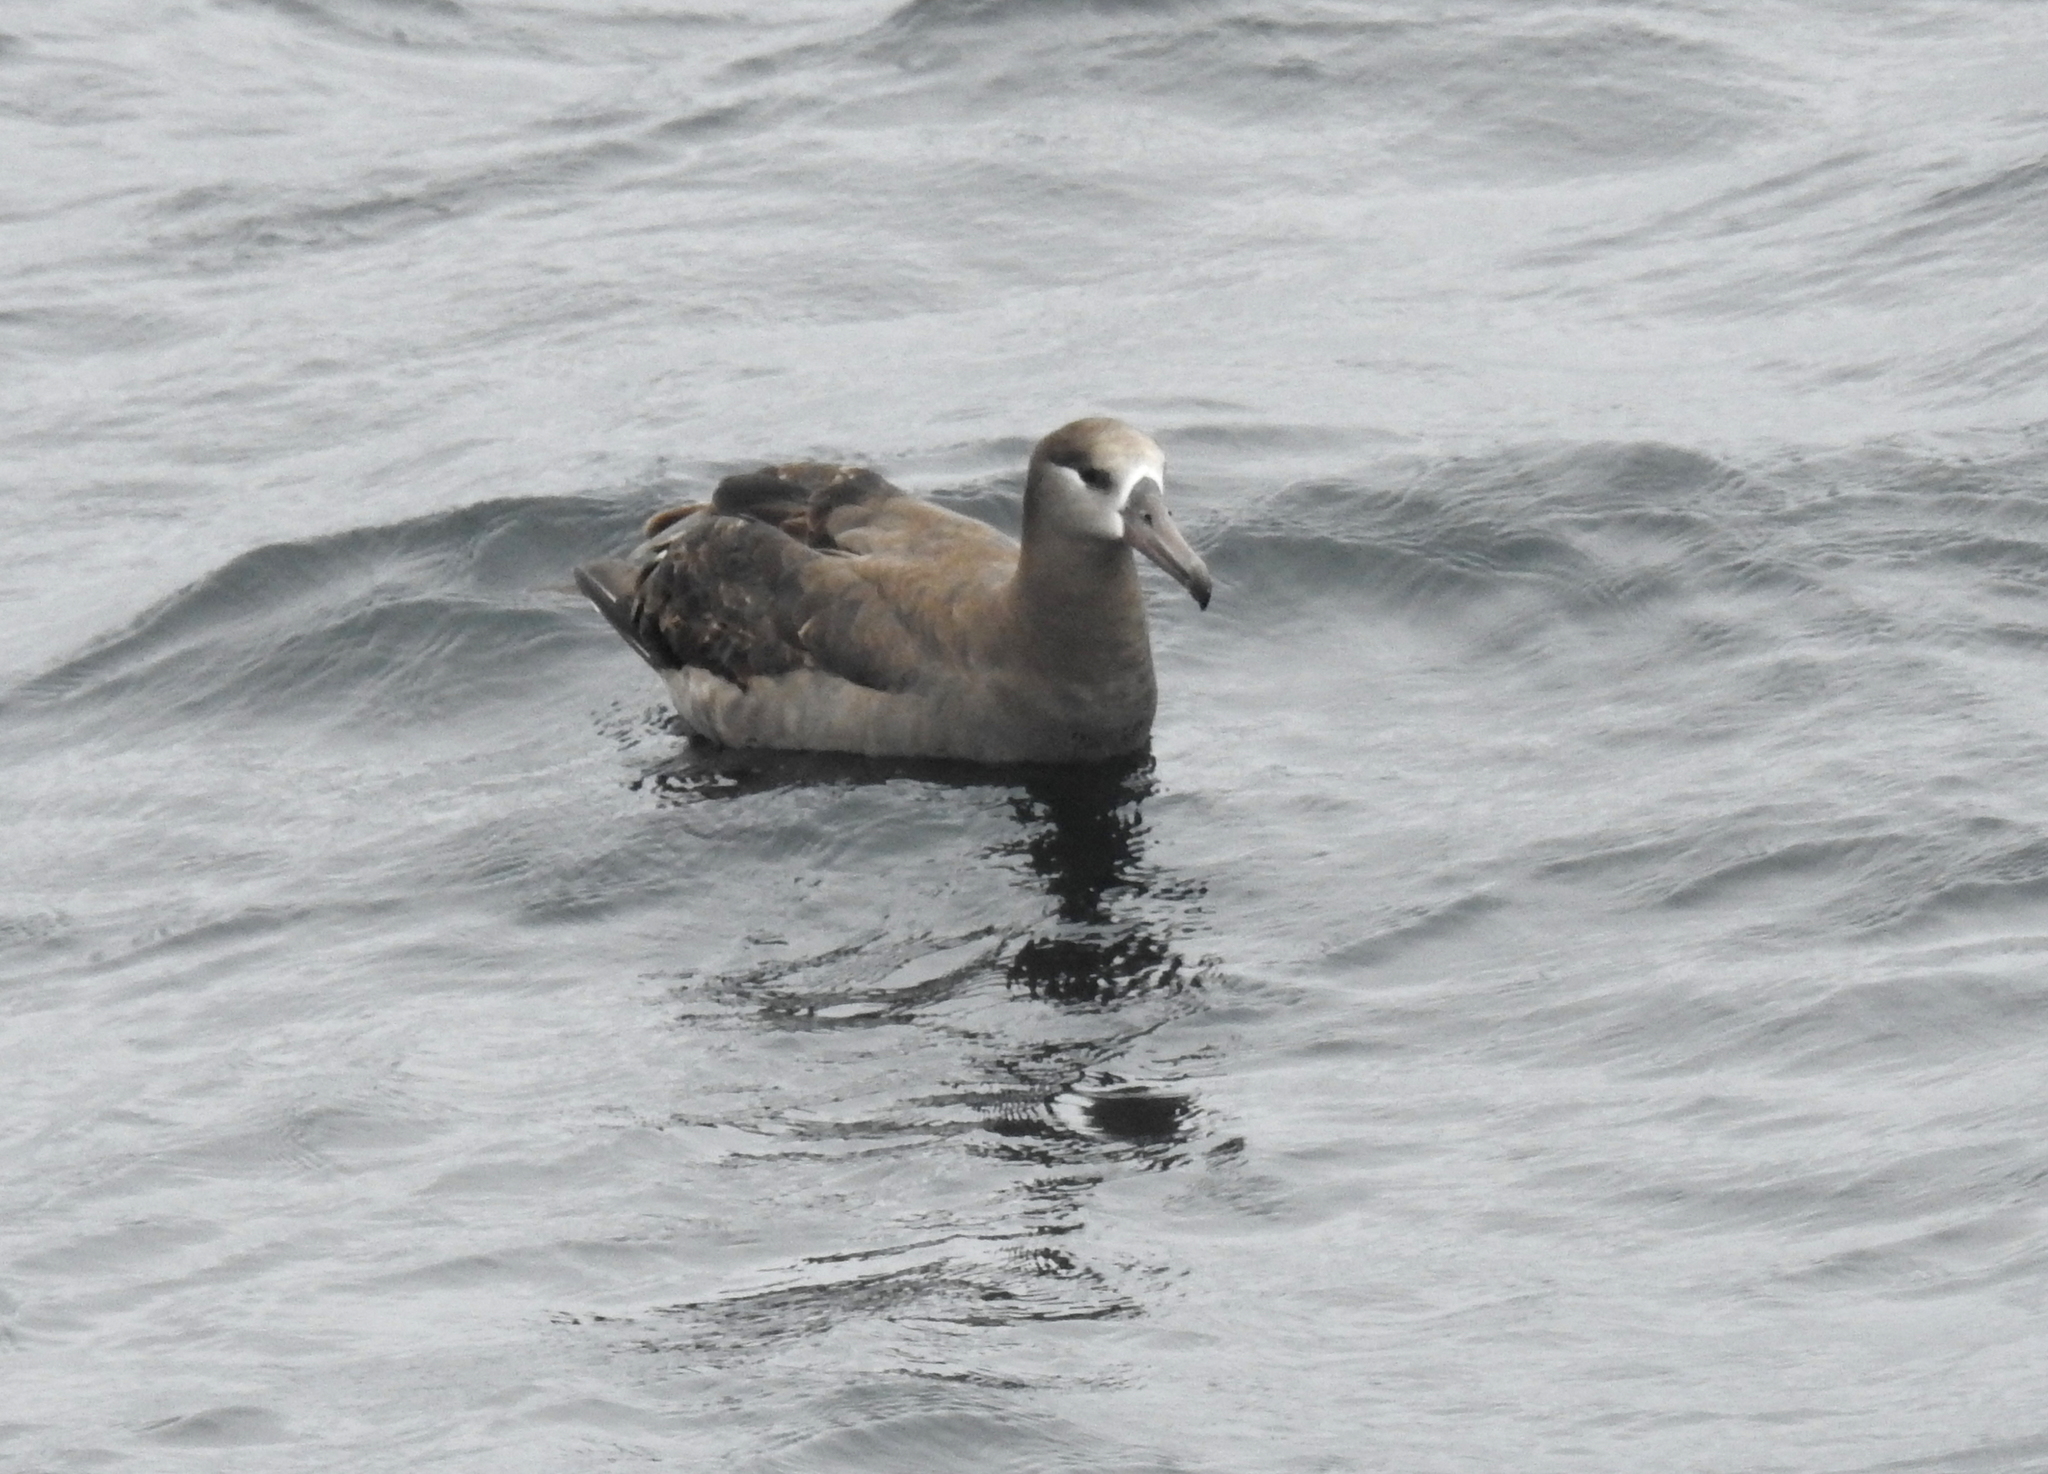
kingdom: Animalia
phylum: Chordata
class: Aves
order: Procellariiformes
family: Diomedeidae
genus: Phoebastria
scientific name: Phoebastria nigripes
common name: Black-footed albatross
